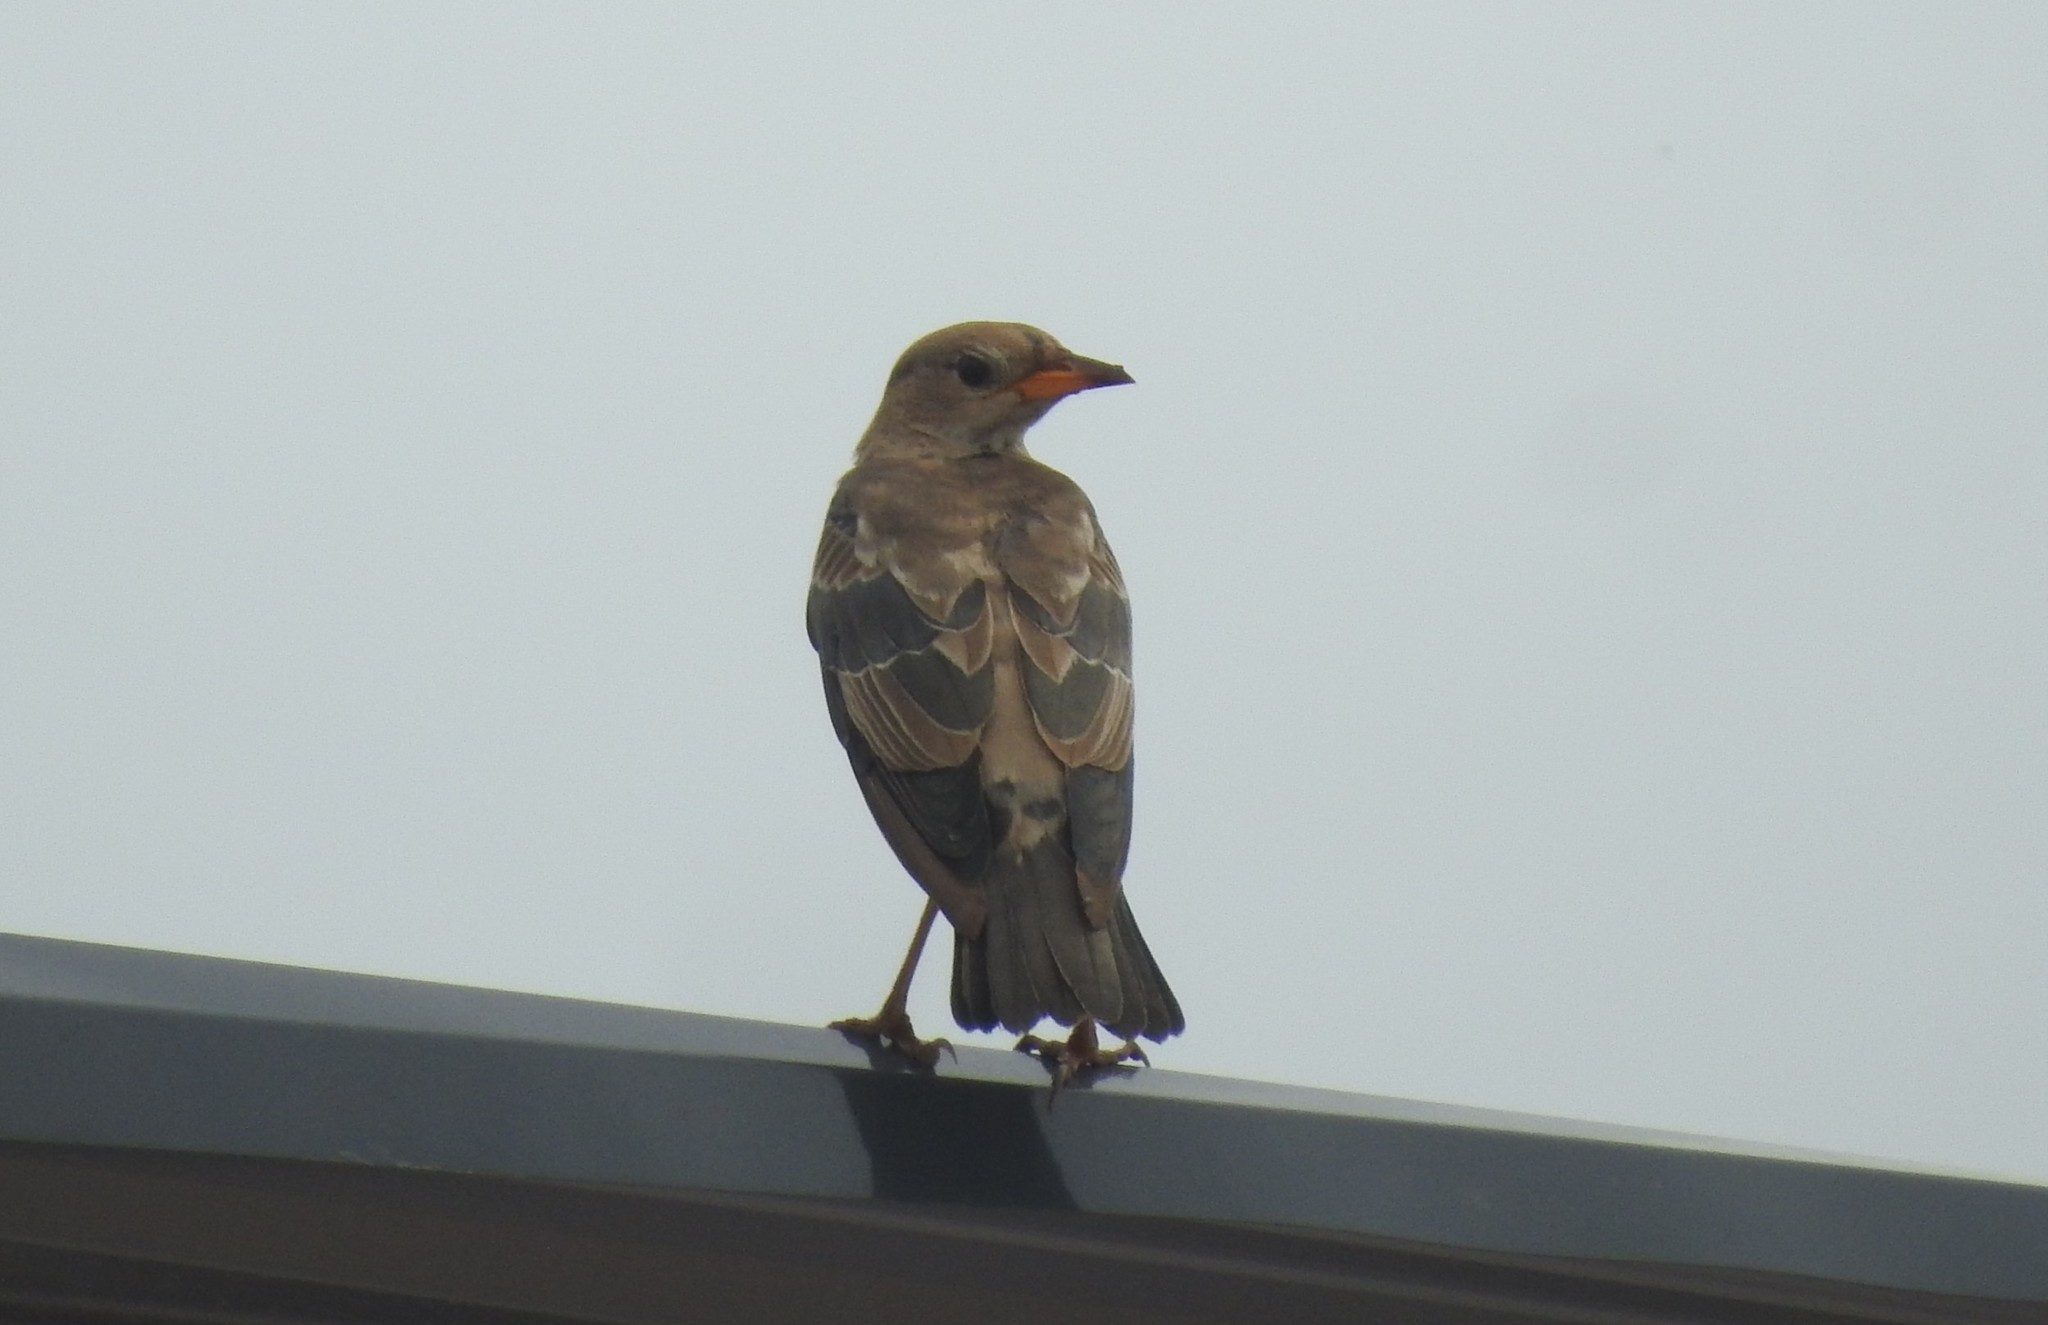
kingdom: Animalia
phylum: Chordata
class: Aves
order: Passeriformes
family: Sturnidae
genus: Pastor
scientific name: Pastor roseus
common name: Rosy starling
